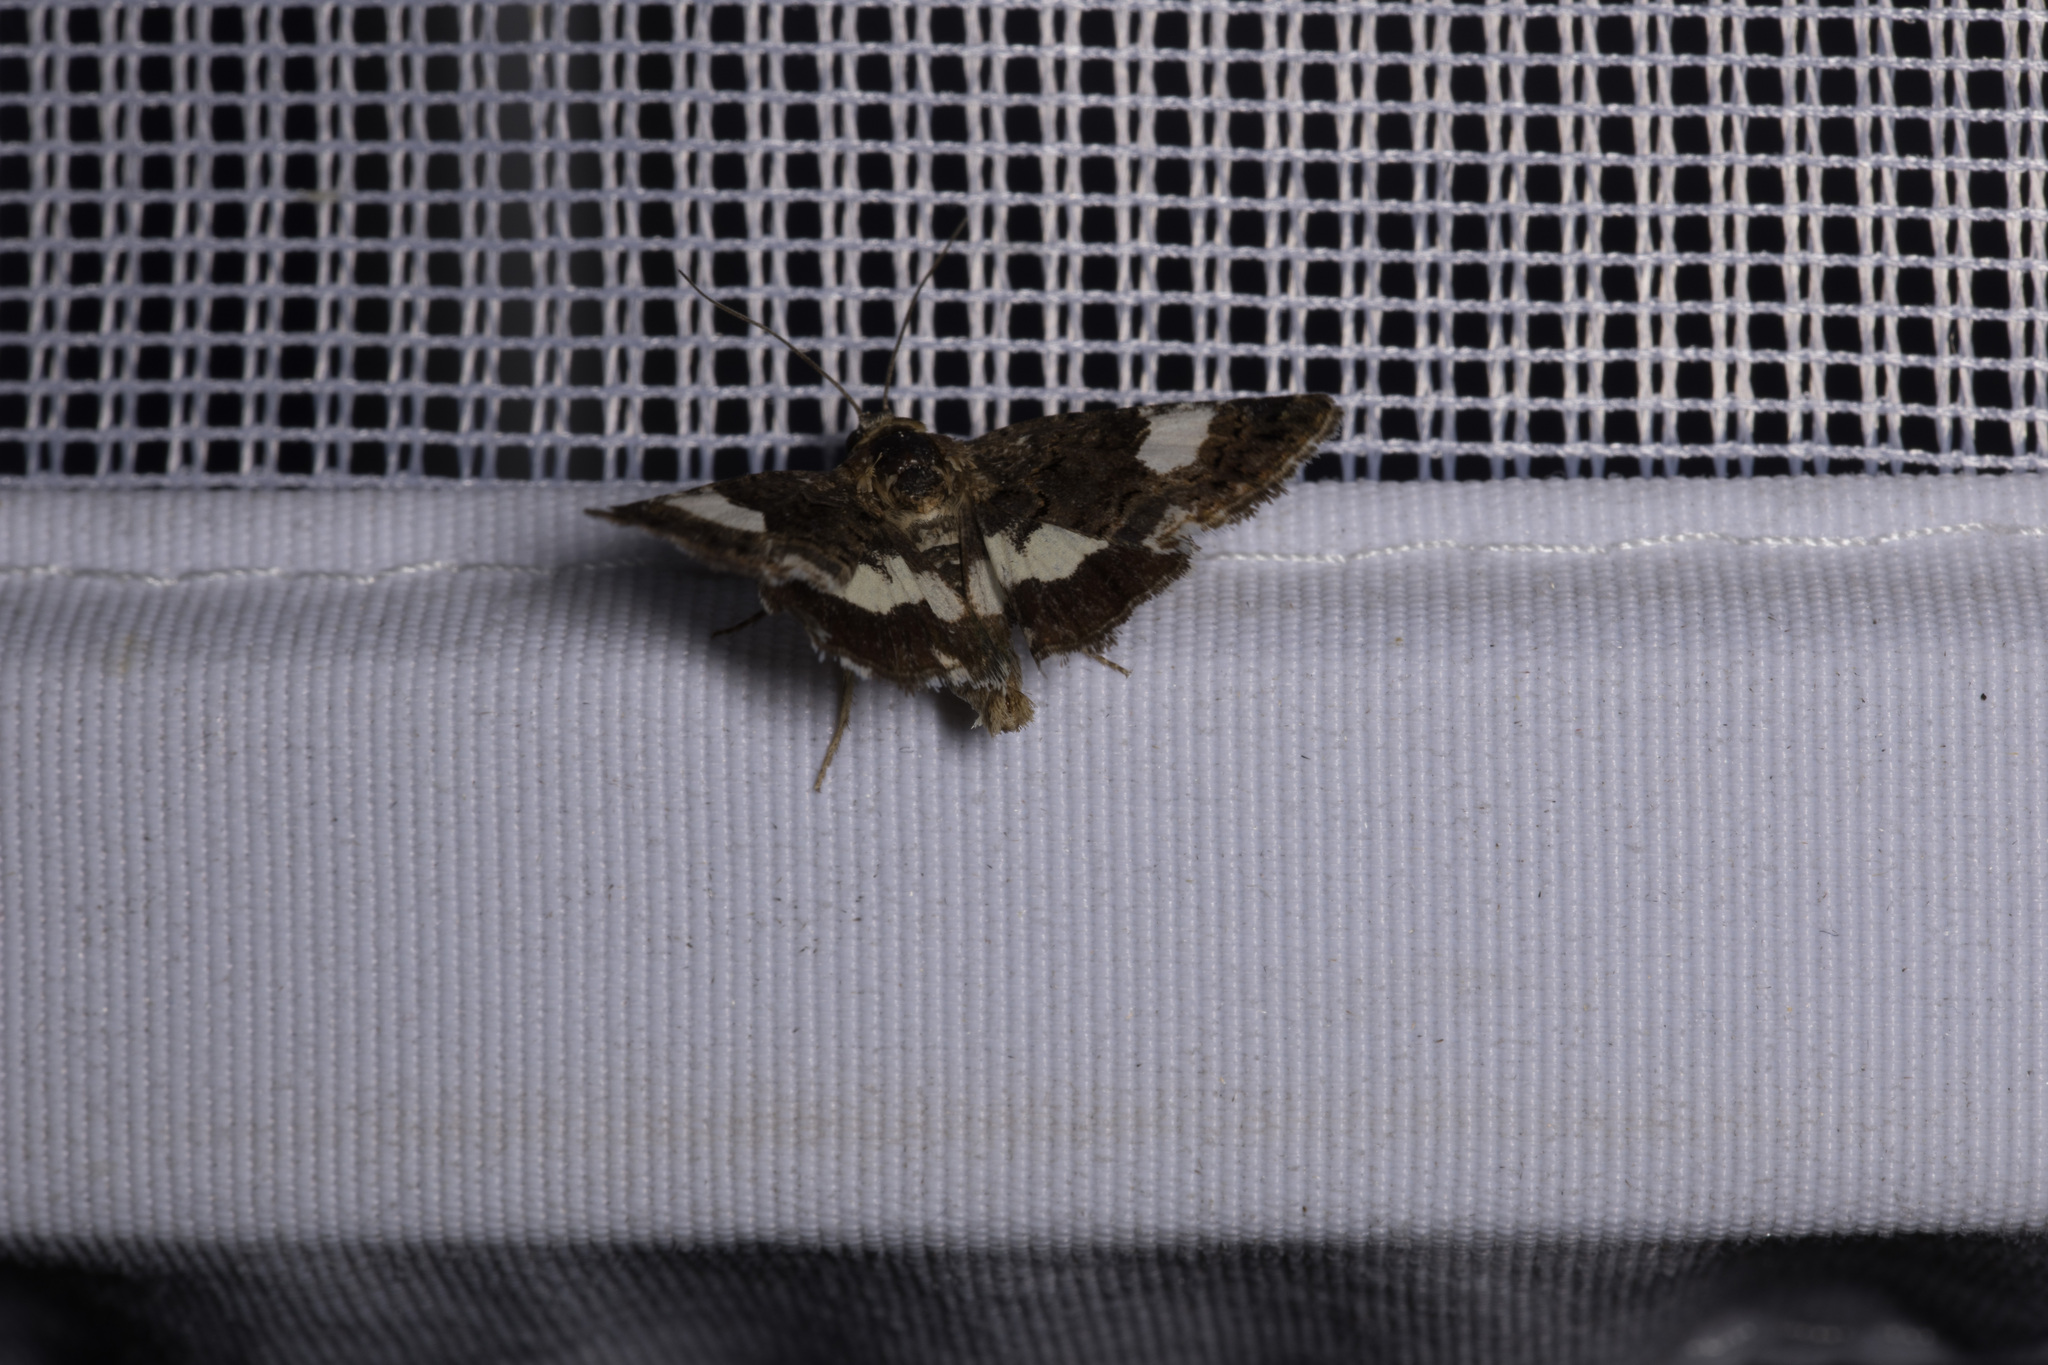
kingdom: Animalia
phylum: Arthropoda
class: Insecta
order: Lepidoptera
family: Erebidae
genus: Tyta
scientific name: Tyta luctuosa
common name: Four-spotted
